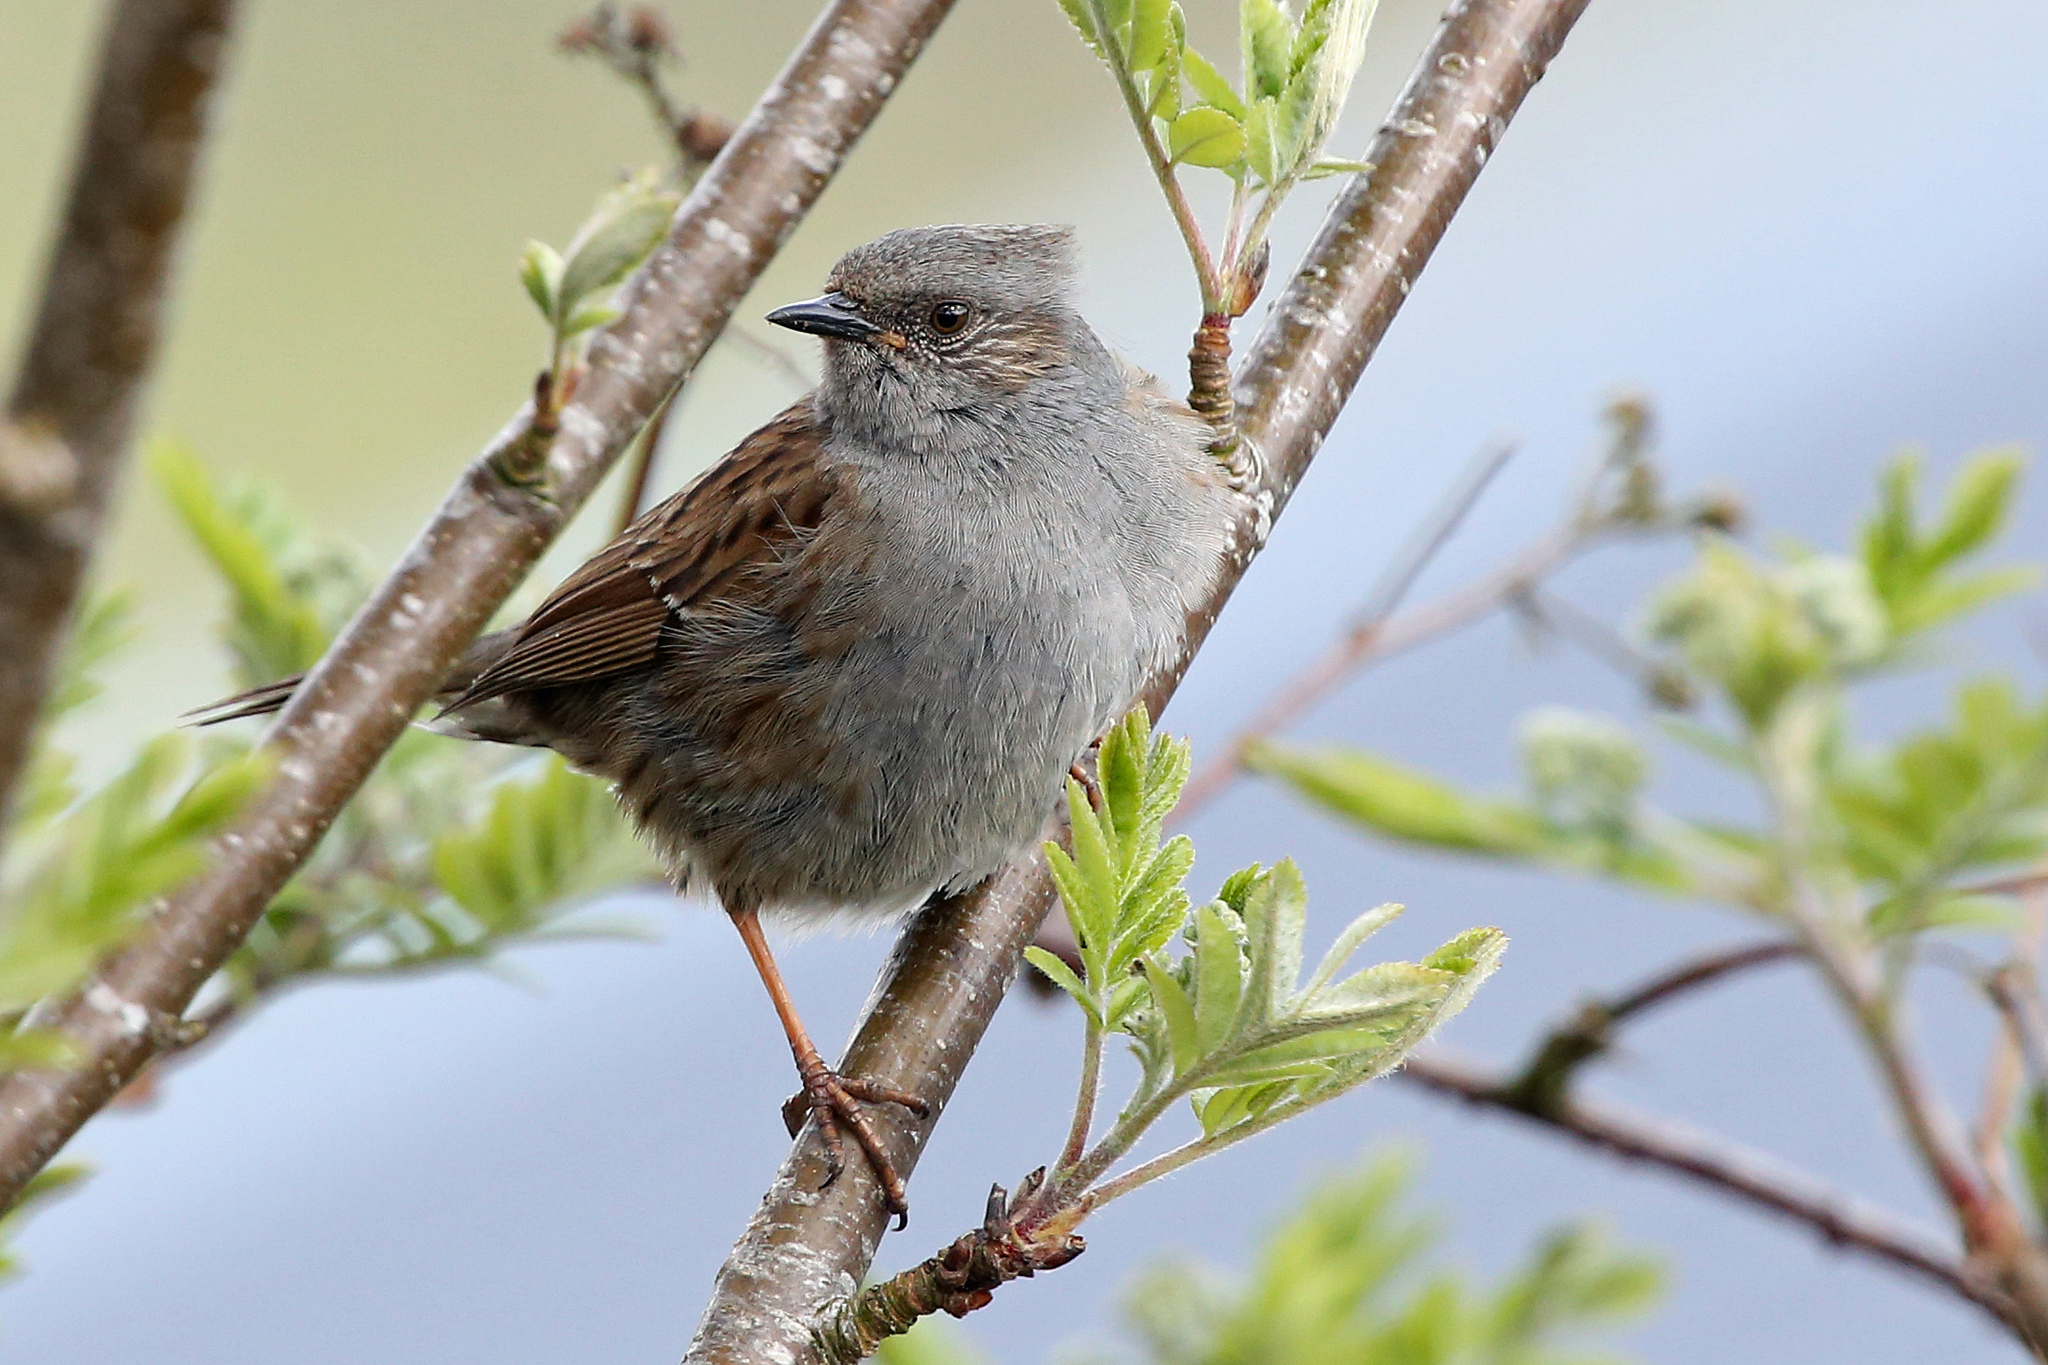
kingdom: Animalia
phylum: Chordata
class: Aves
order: Passeriformes
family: Prunellidae
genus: Prunella
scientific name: Prunella modularis
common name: Dunnock
